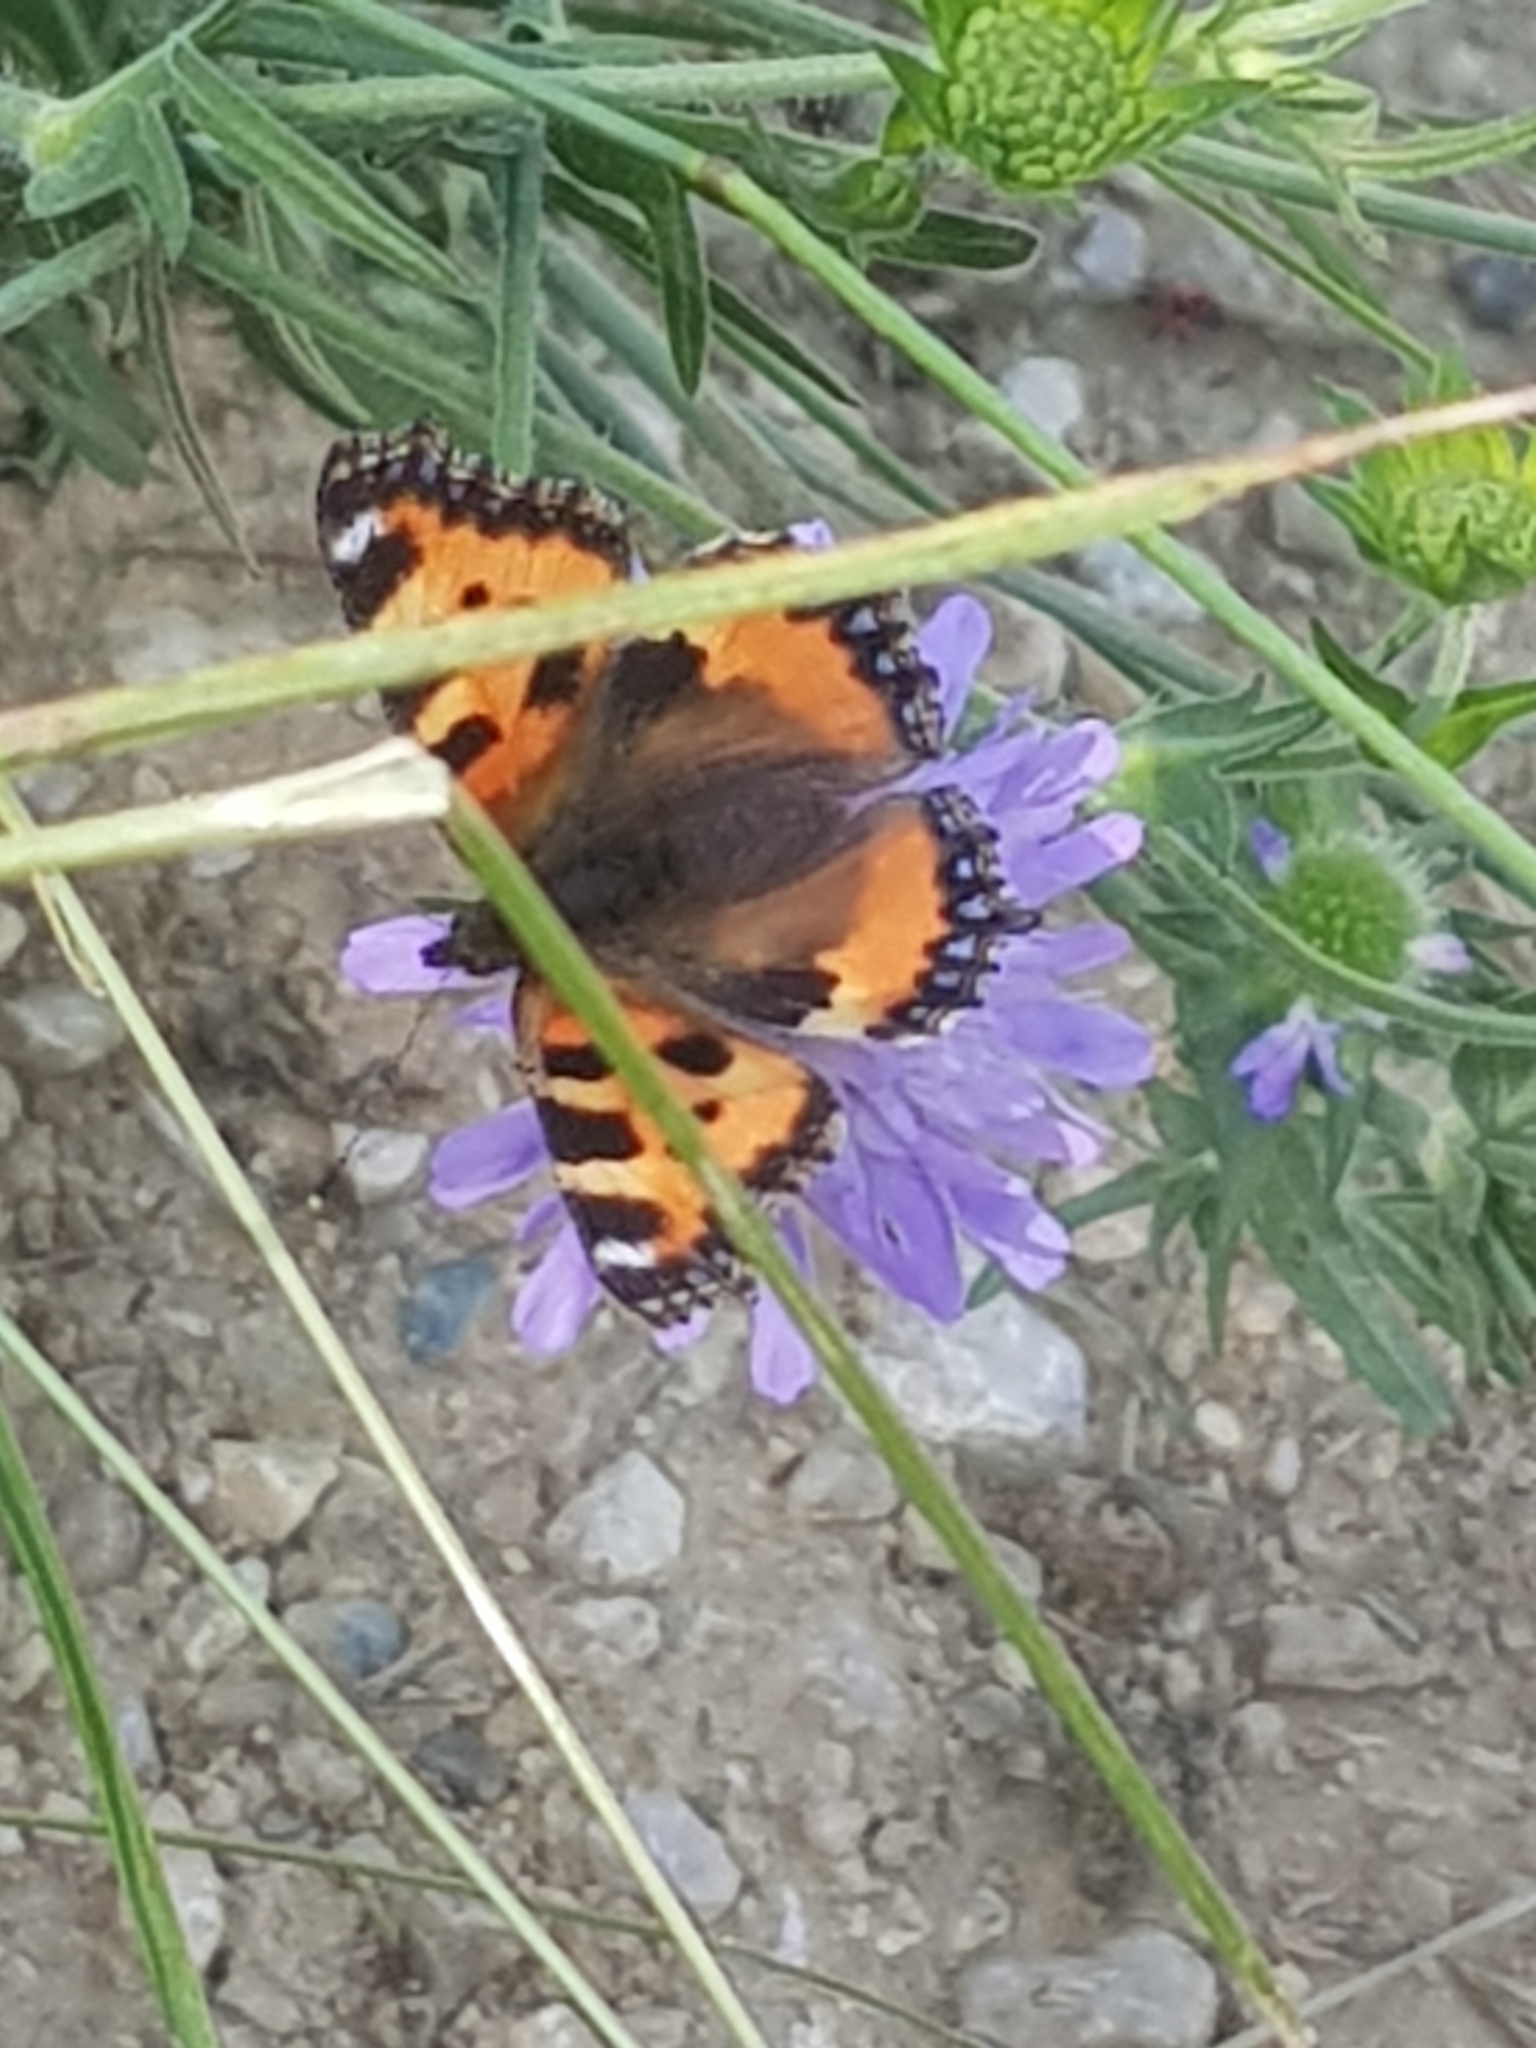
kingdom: Animalia
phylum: Arthropoda
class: Insecta
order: Lepidoptera
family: Nymphalidae
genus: Aglais
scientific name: Aglais urticae
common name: Small tortoiseshell
